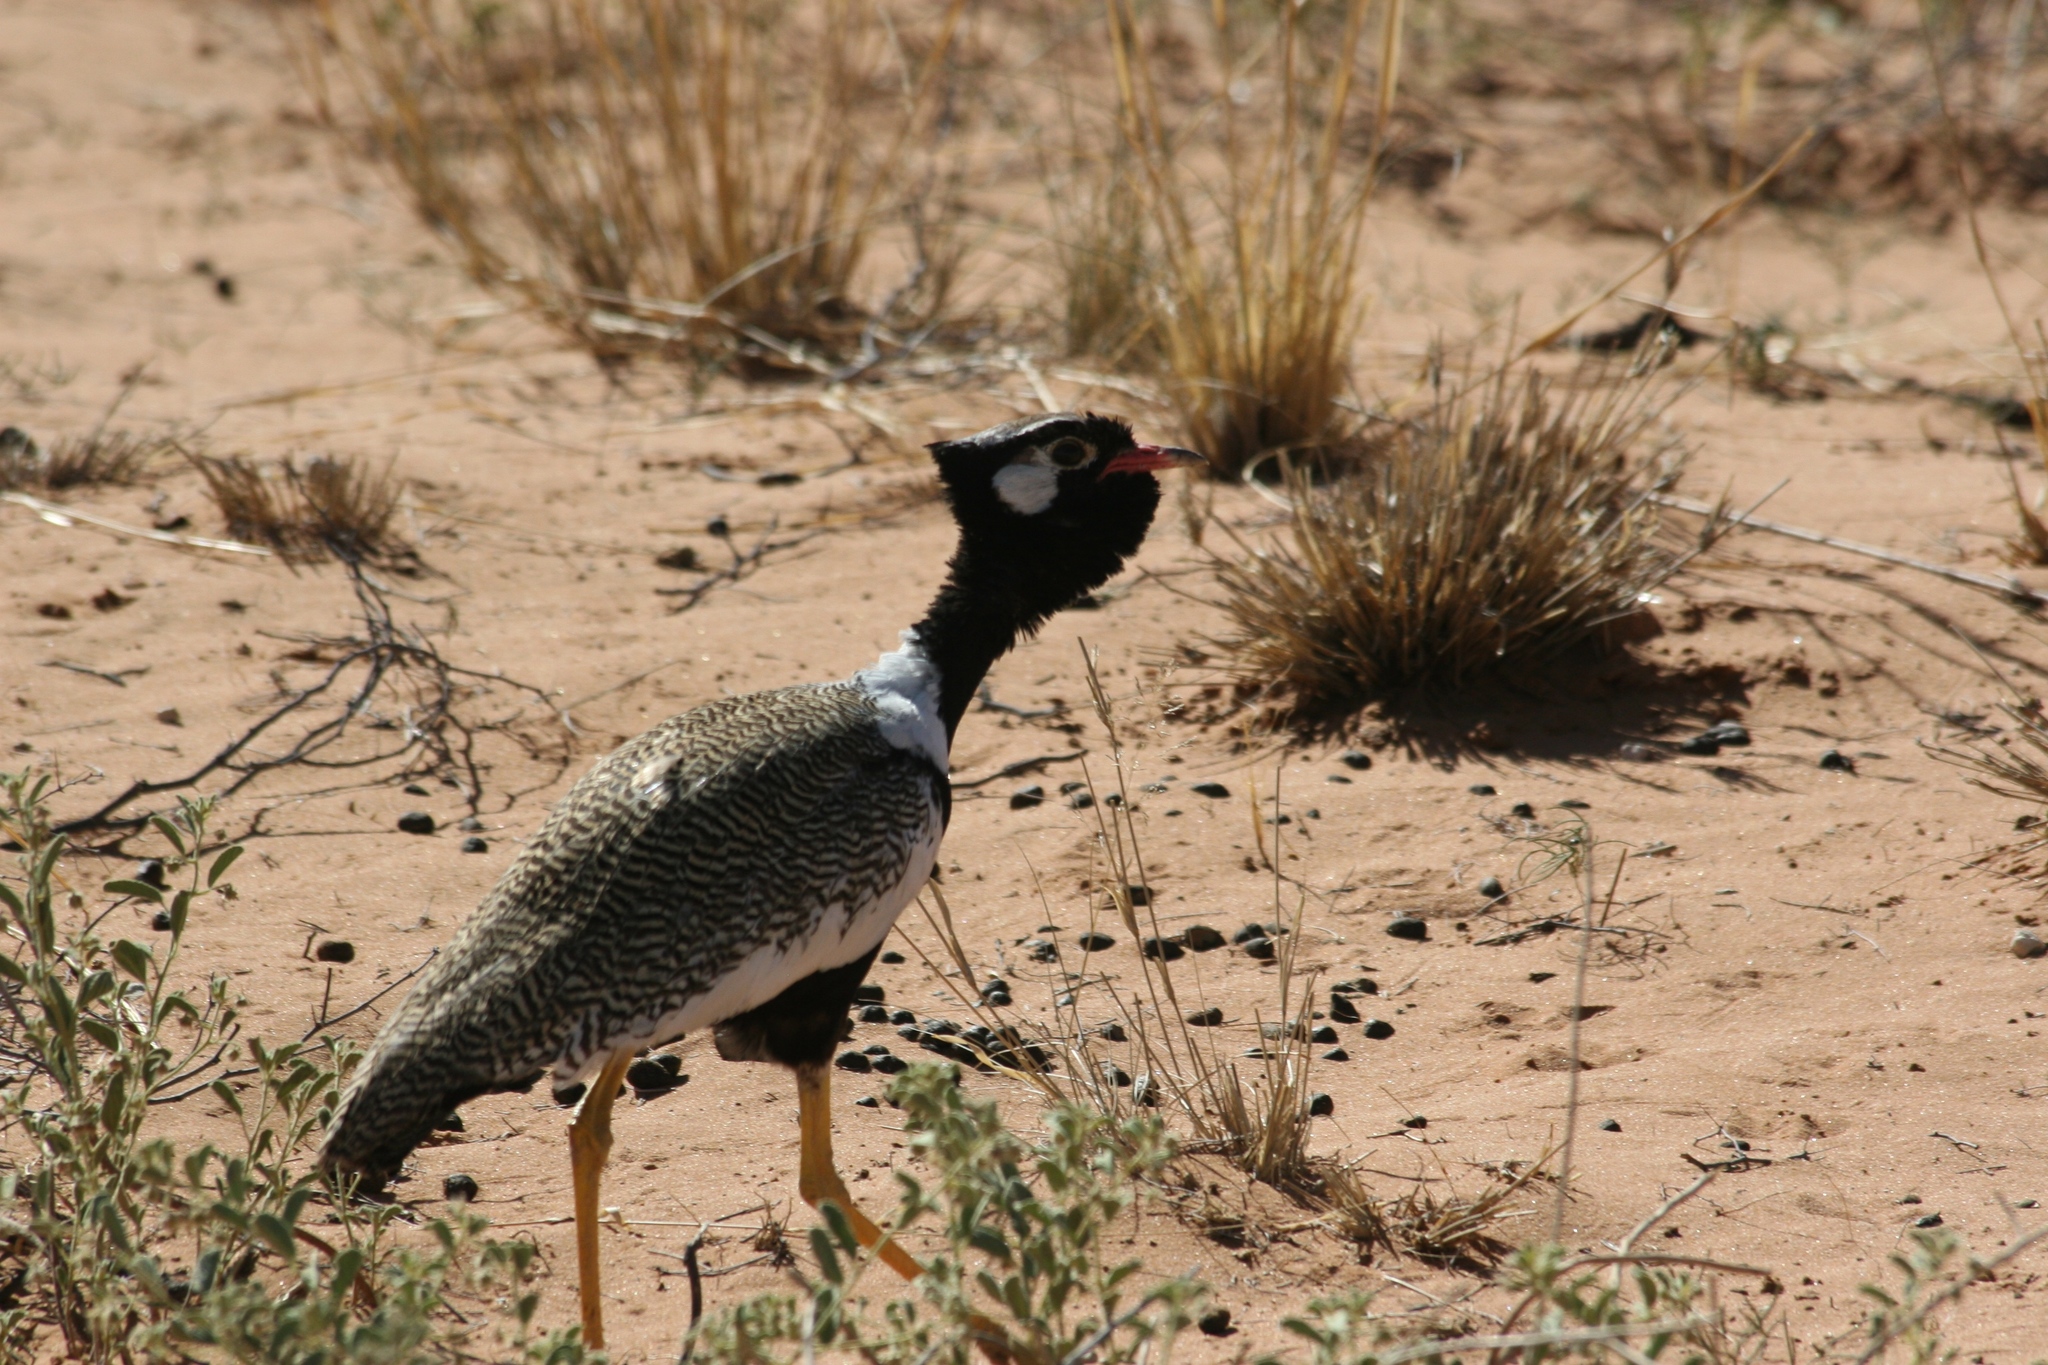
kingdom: Animalia
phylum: Chordata
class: Aves
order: Otidiformes
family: Otididae
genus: Afrotis
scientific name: Afrotis afraoides
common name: Northern black korhaan
